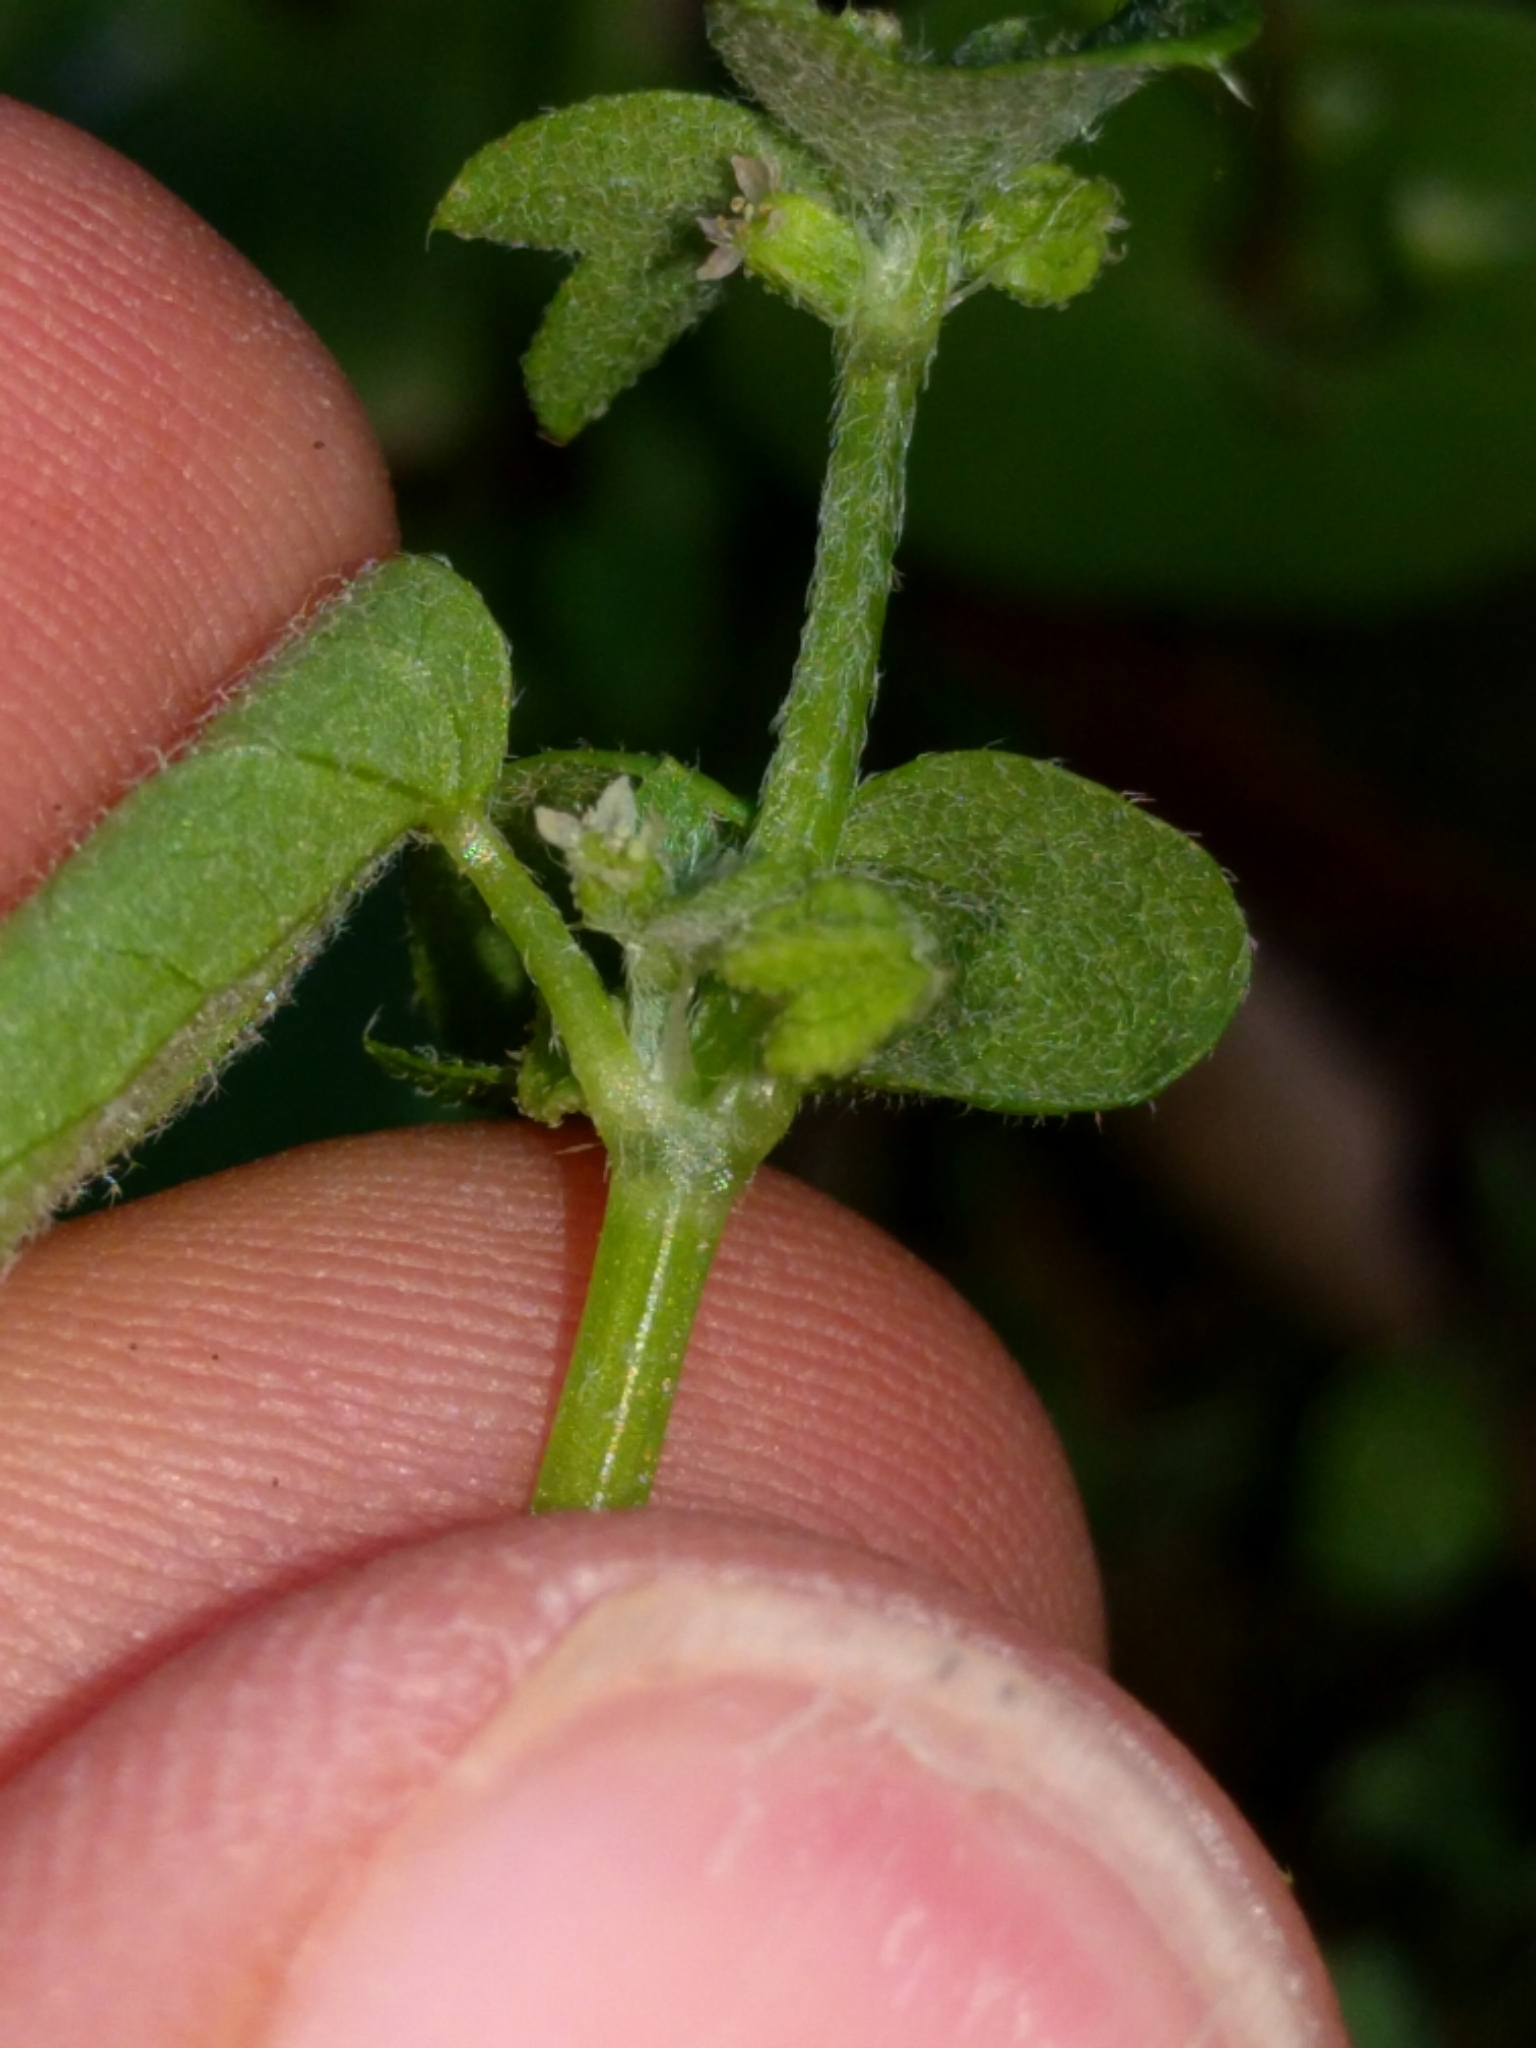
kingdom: Plantae
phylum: Tracheophyta
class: Magnoliopsida
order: Apiales
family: Apiaceae
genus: Bowlesia
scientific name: Bowlesia incana
